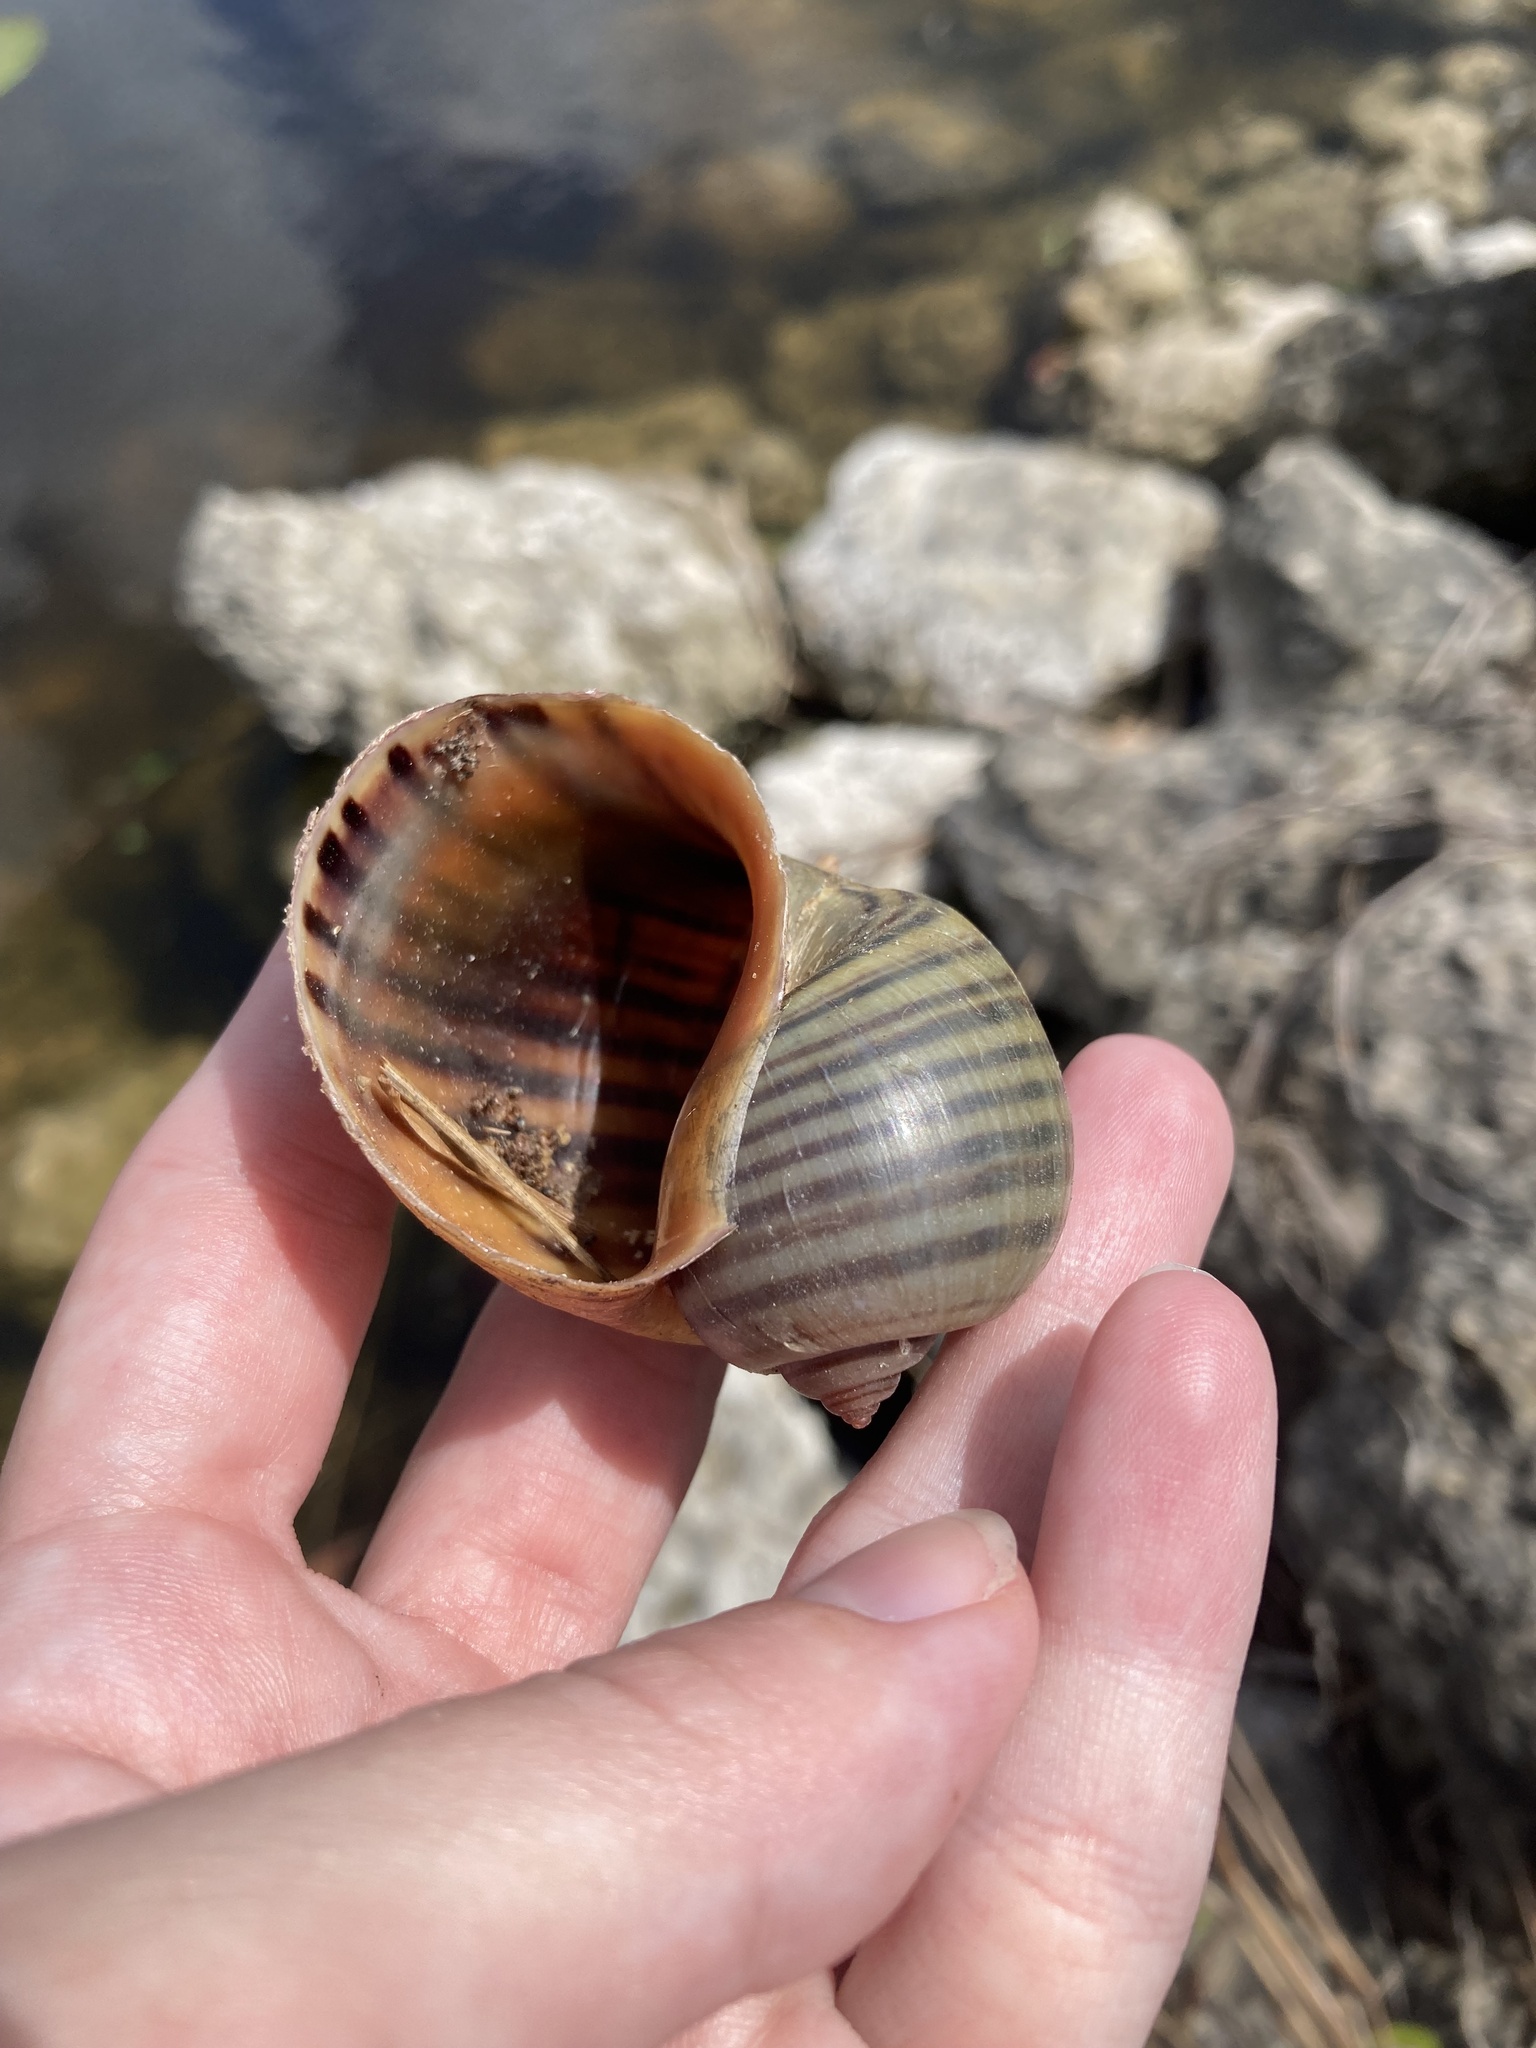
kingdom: Animalia
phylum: Mollusca
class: Gastropoda
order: Architaenioglossa
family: Ampullariidae
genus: Pomacea
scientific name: Pomacea maculata
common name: Giant applesnail
